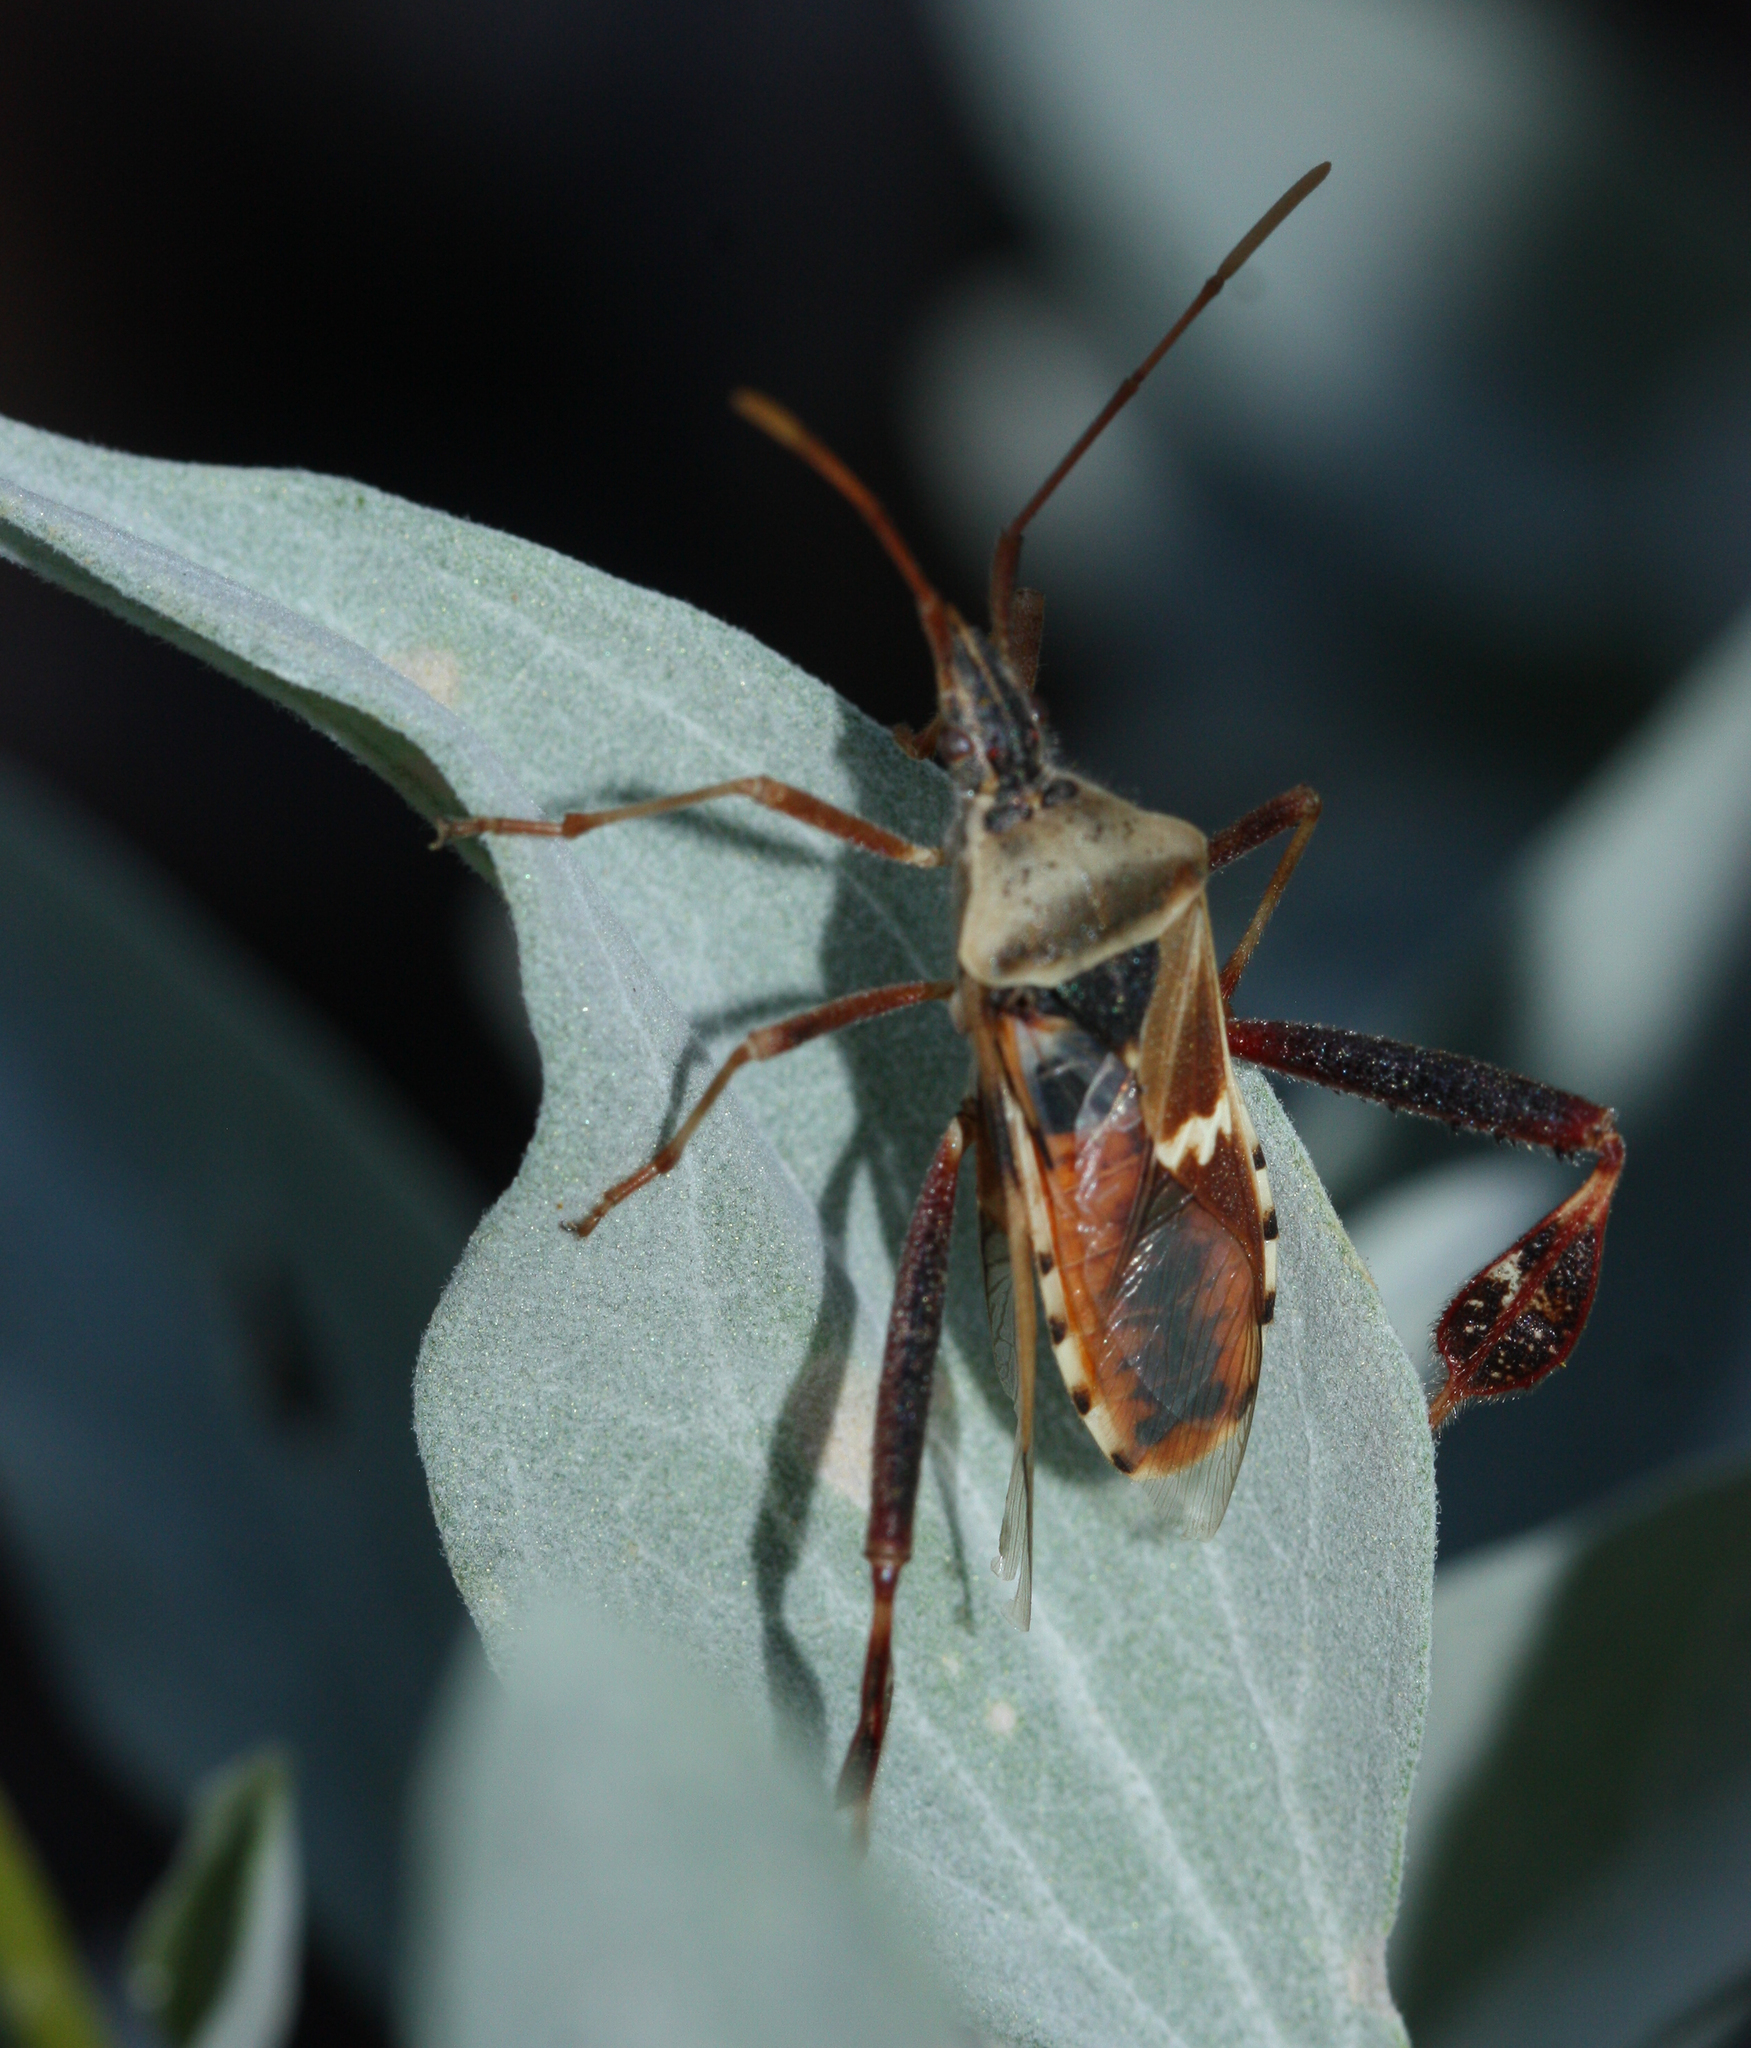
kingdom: Animalia
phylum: Arthropoda
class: Insecta
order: Hemiptera
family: Coreidae
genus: Leptoglossus
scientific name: Leptoglossus clypealis
